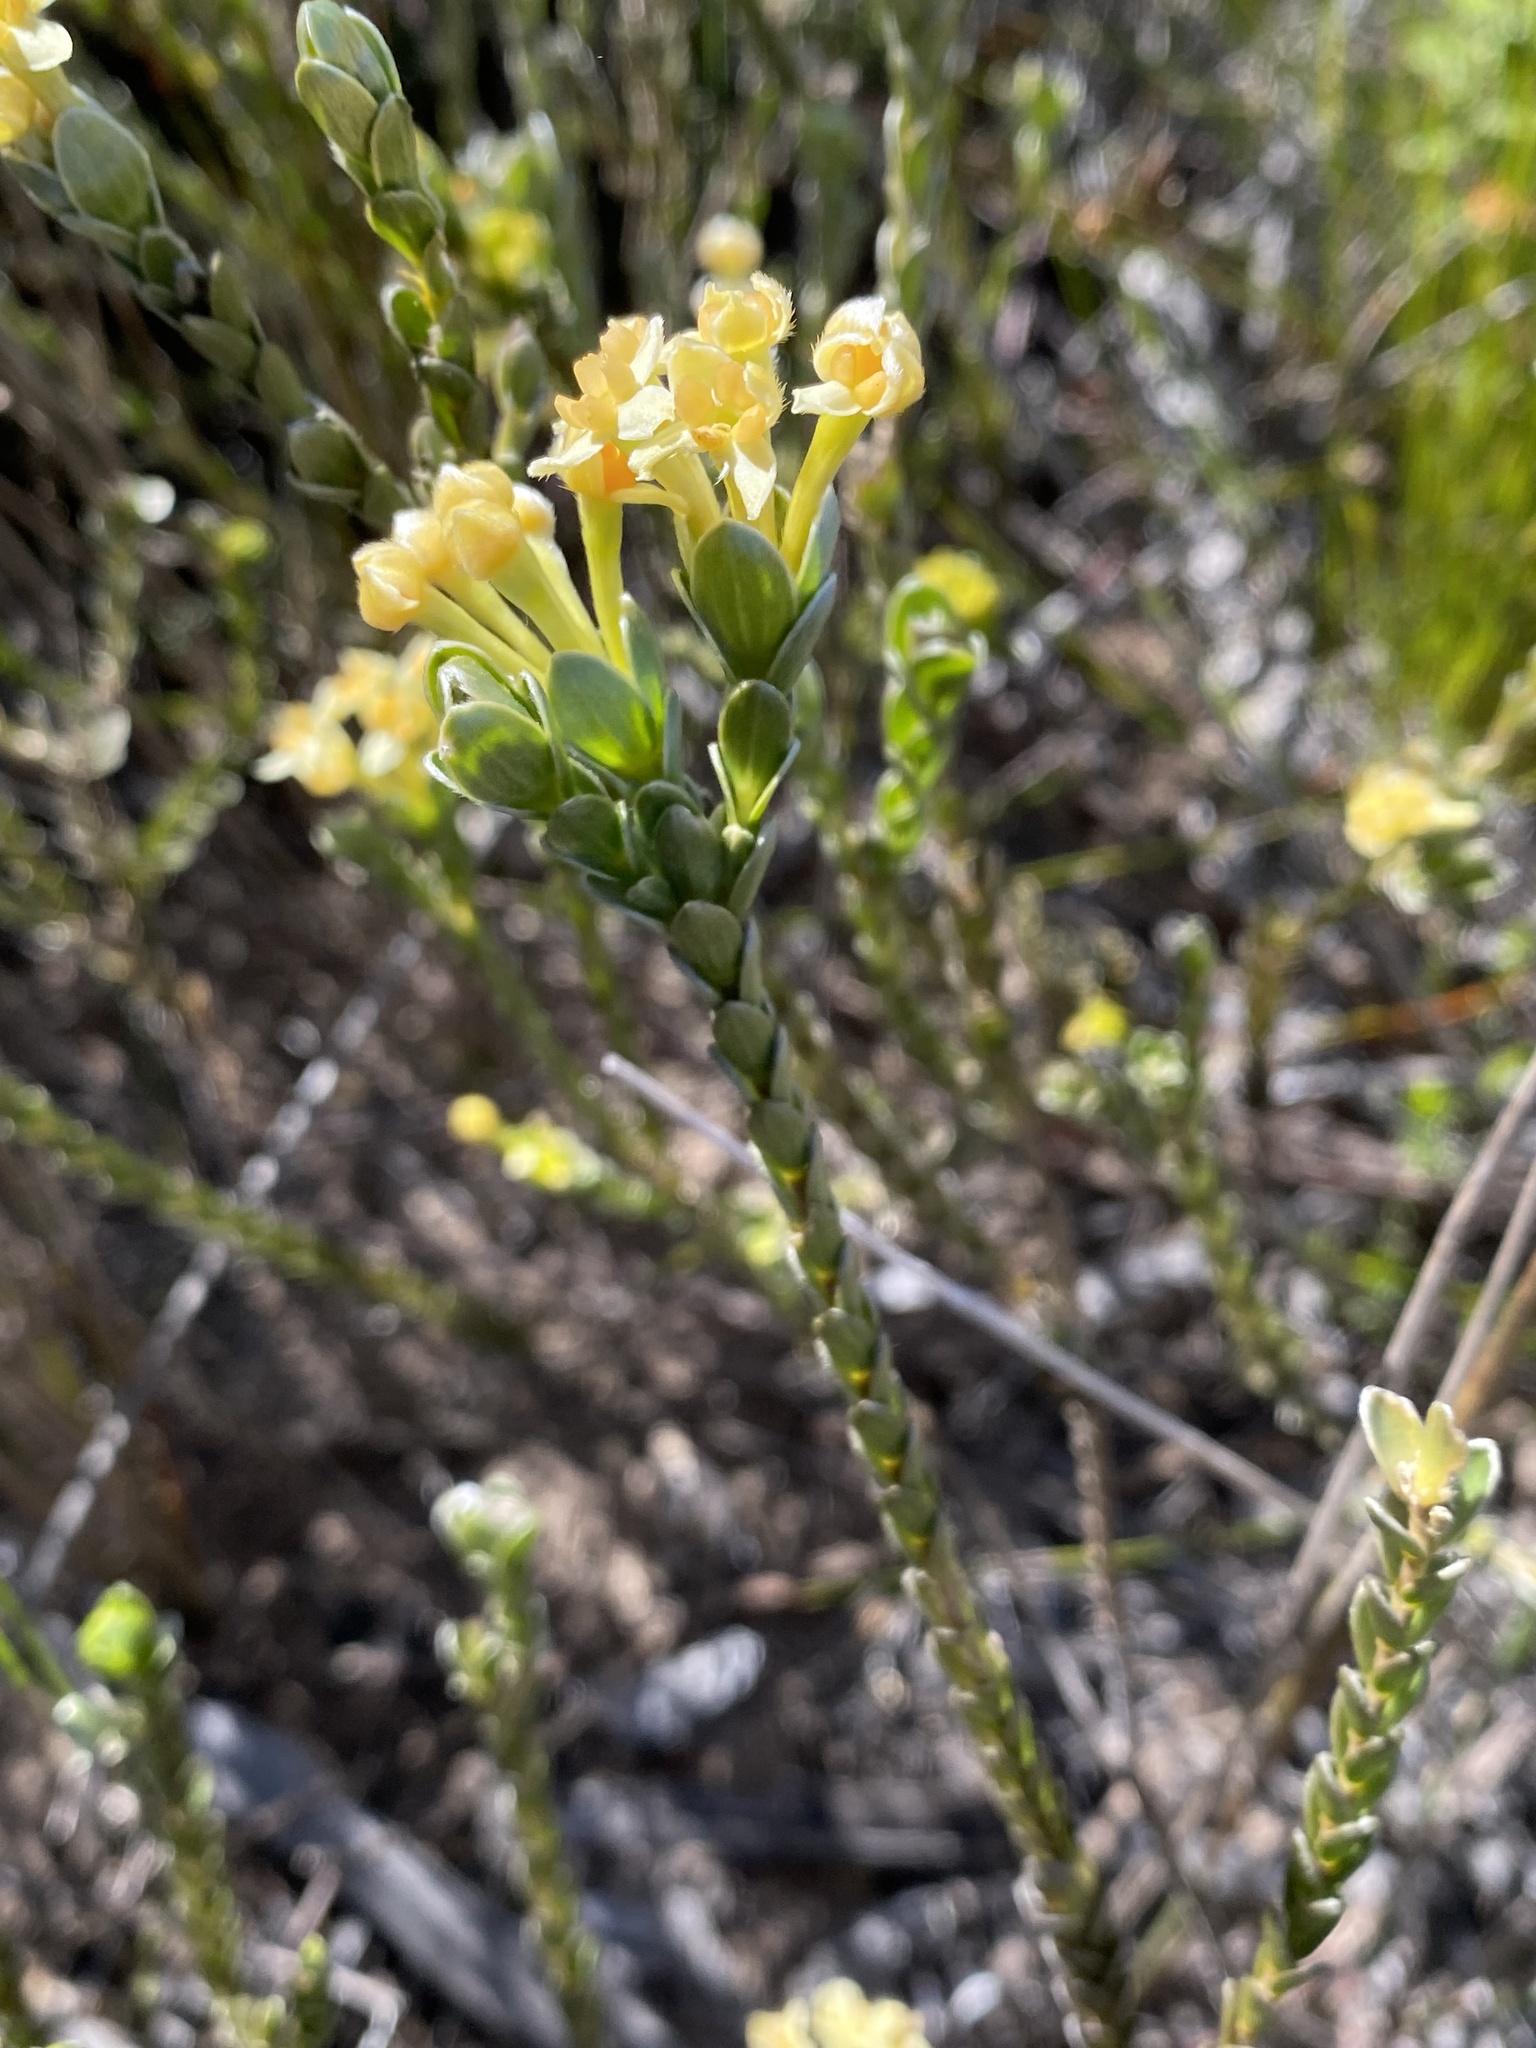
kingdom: Plantae
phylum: Tracheophyta
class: Magnoliopsida
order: Malvales
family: Thymelaeaceae
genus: Gnidia
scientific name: Gnidia chrysophylla
